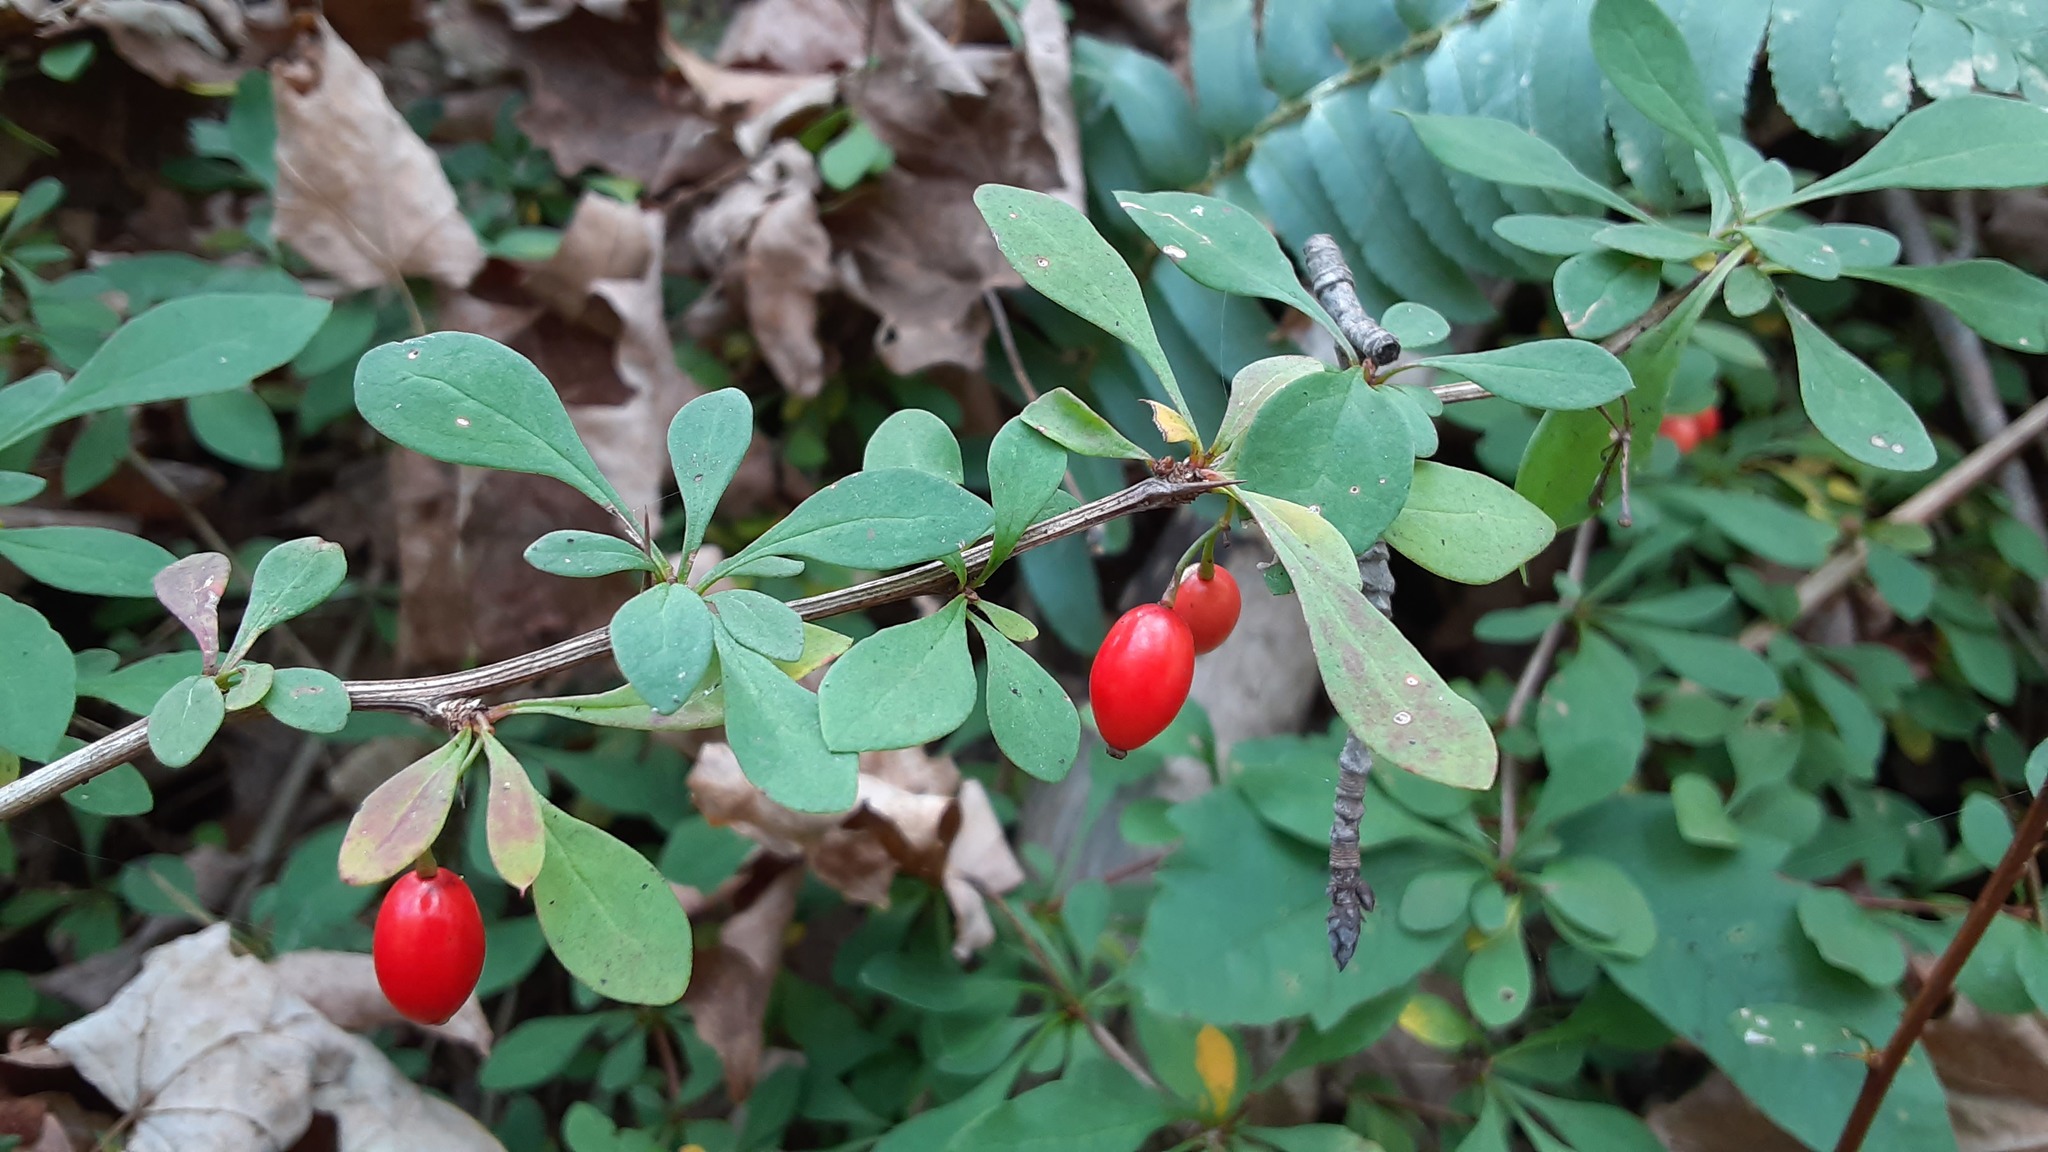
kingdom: Plantae
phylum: Tracheophyta
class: Magnoliopsida
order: Ranunculales
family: Berberidaceae
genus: Berberis
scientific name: Berberis thunbergii
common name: Japanese barberry
